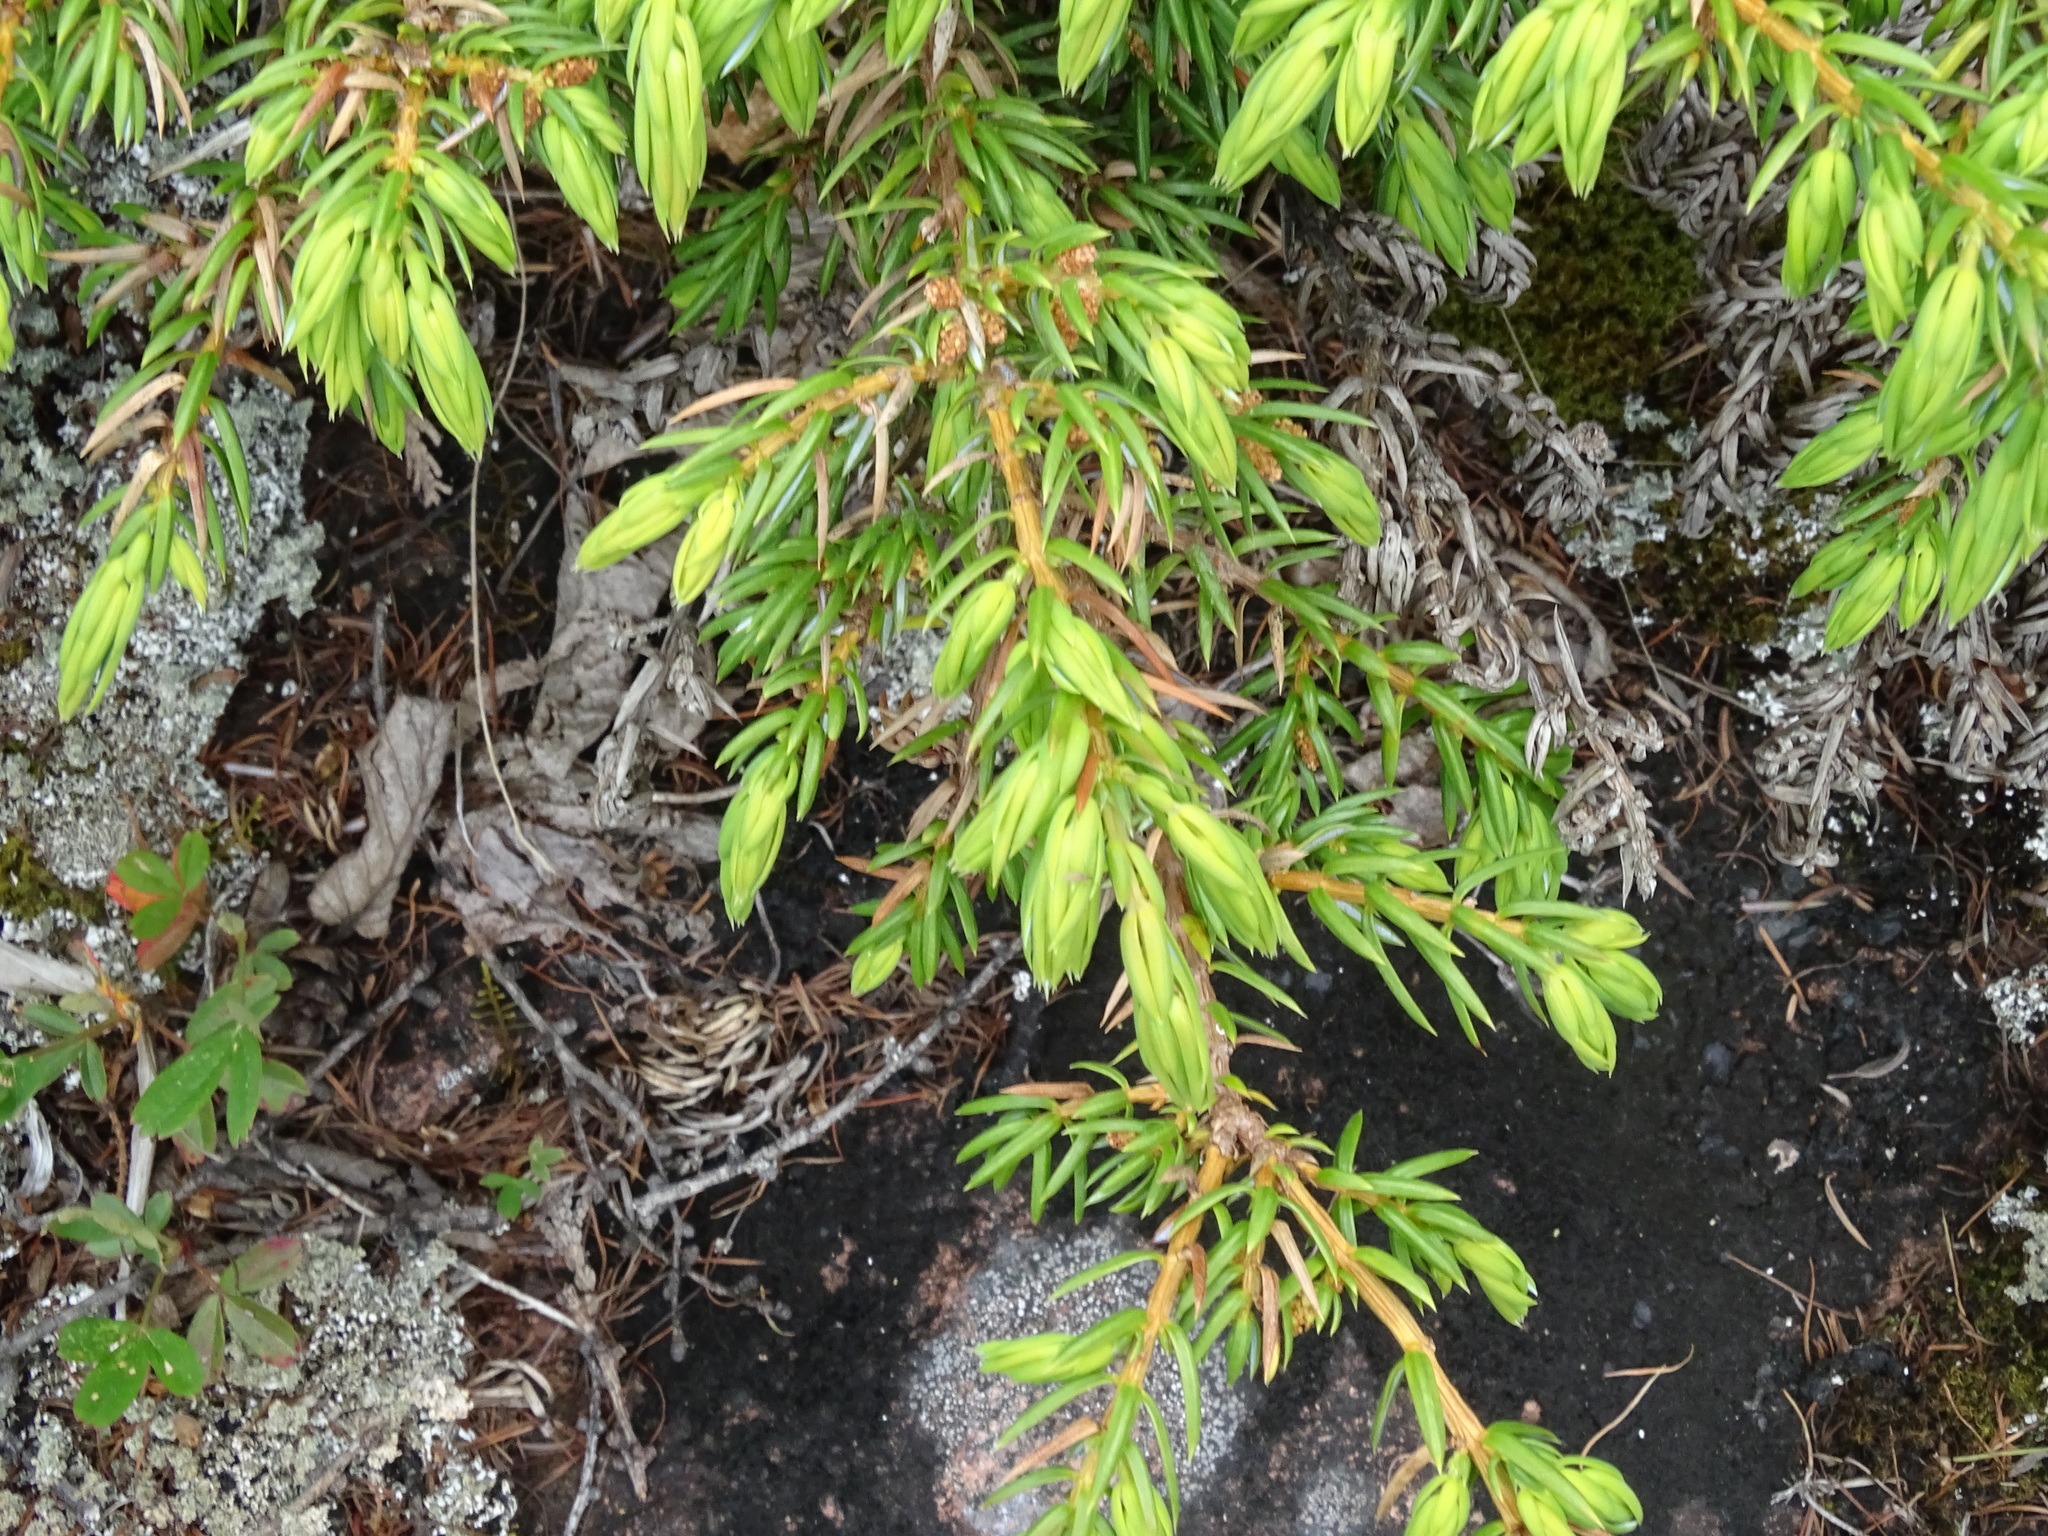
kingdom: Plantae
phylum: Tracheophyta
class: Pinopsida
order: Pinales
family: Cupressaceae
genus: Juniperus
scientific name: Juniperus communis
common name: Common juniper
